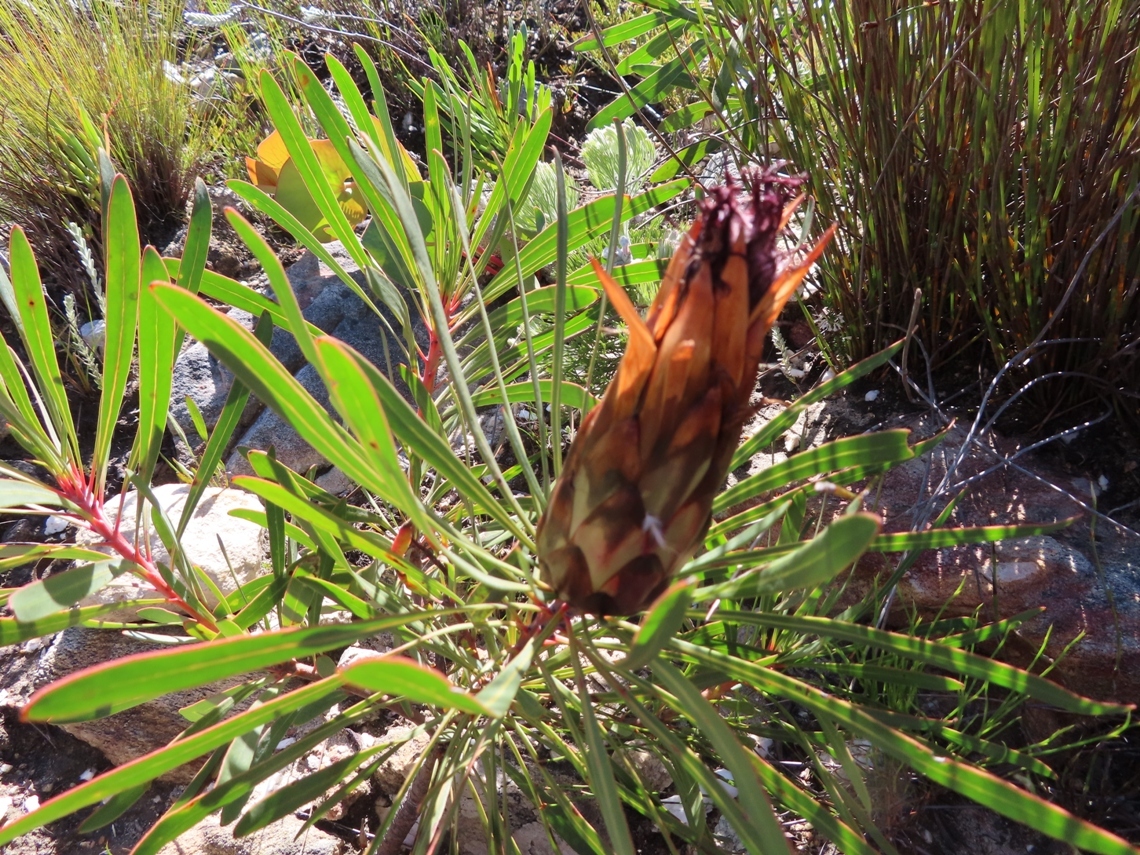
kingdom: Plantae
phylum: Tracheophyta
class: Magnoliopsida
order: Proteales
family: Proteaceae
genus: Protea
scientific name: Protea longifolia
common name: Long-leaf sugarbush
